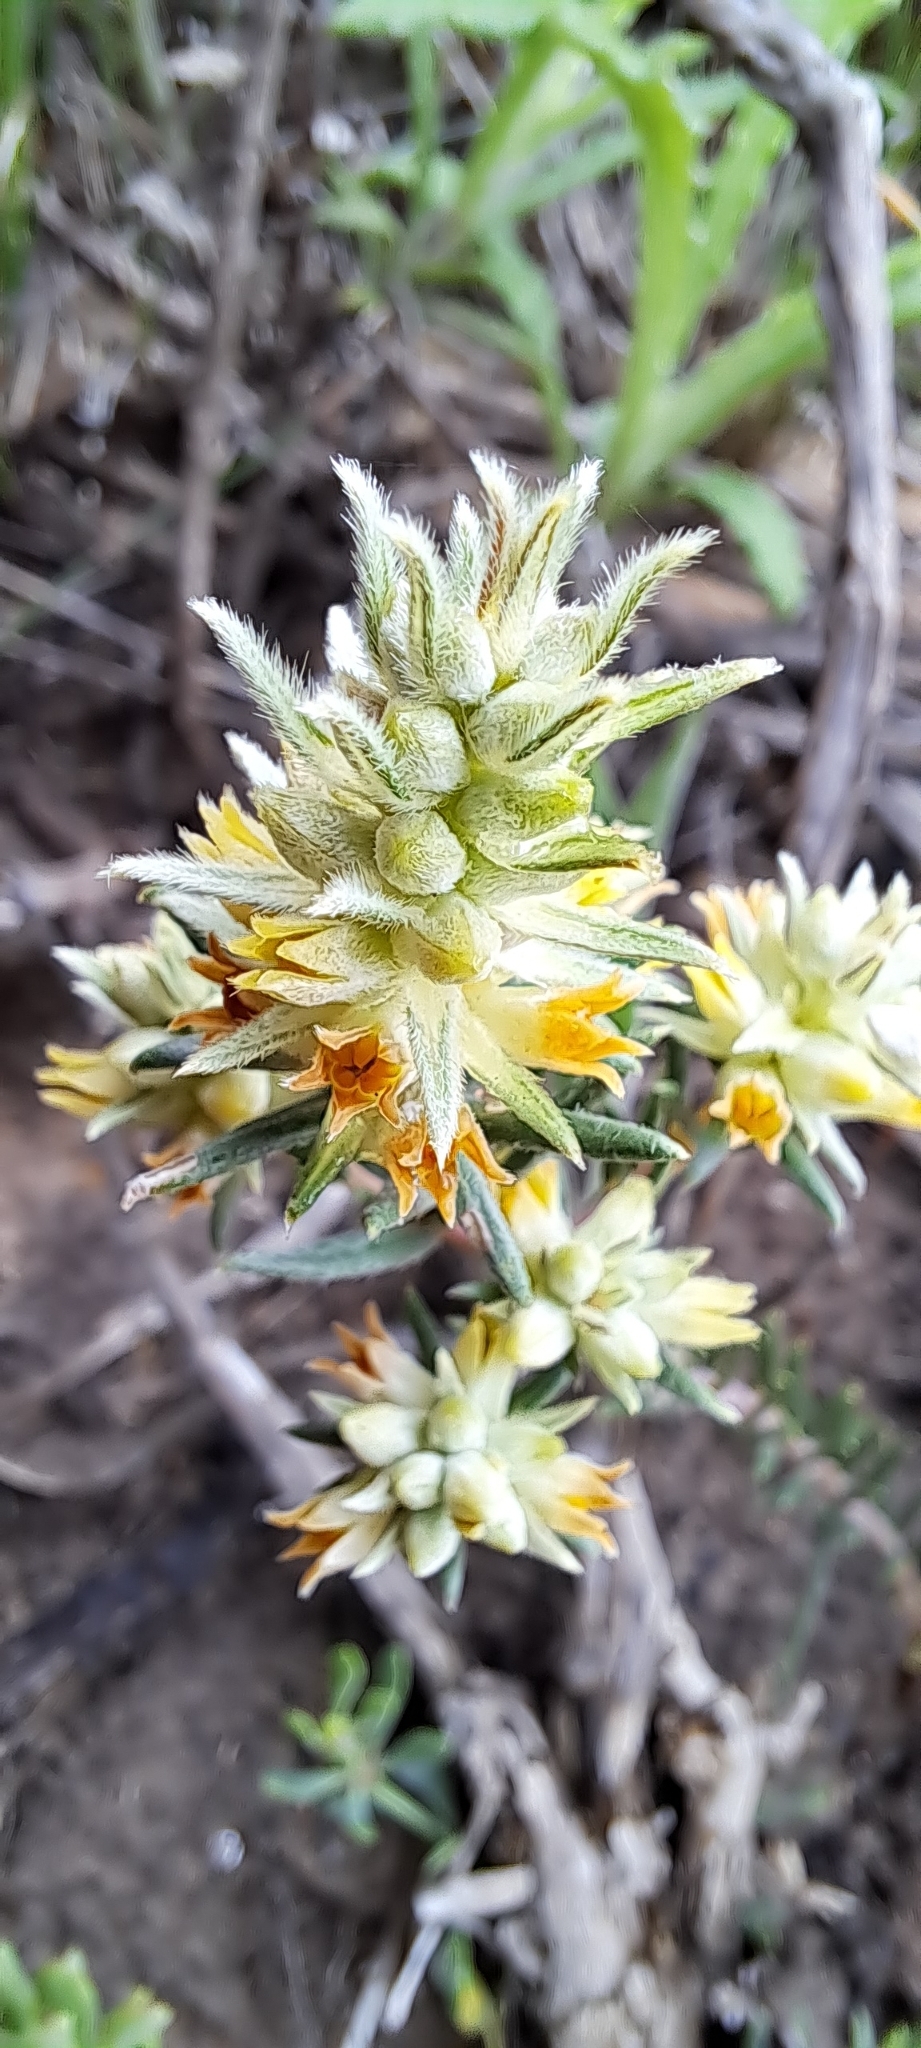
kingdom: Plantae
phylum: Tracheophyta
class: Magnoliopsida
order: Rosales
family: Rhamnaceae
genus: Phylica
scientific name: Phylica strigulosa
